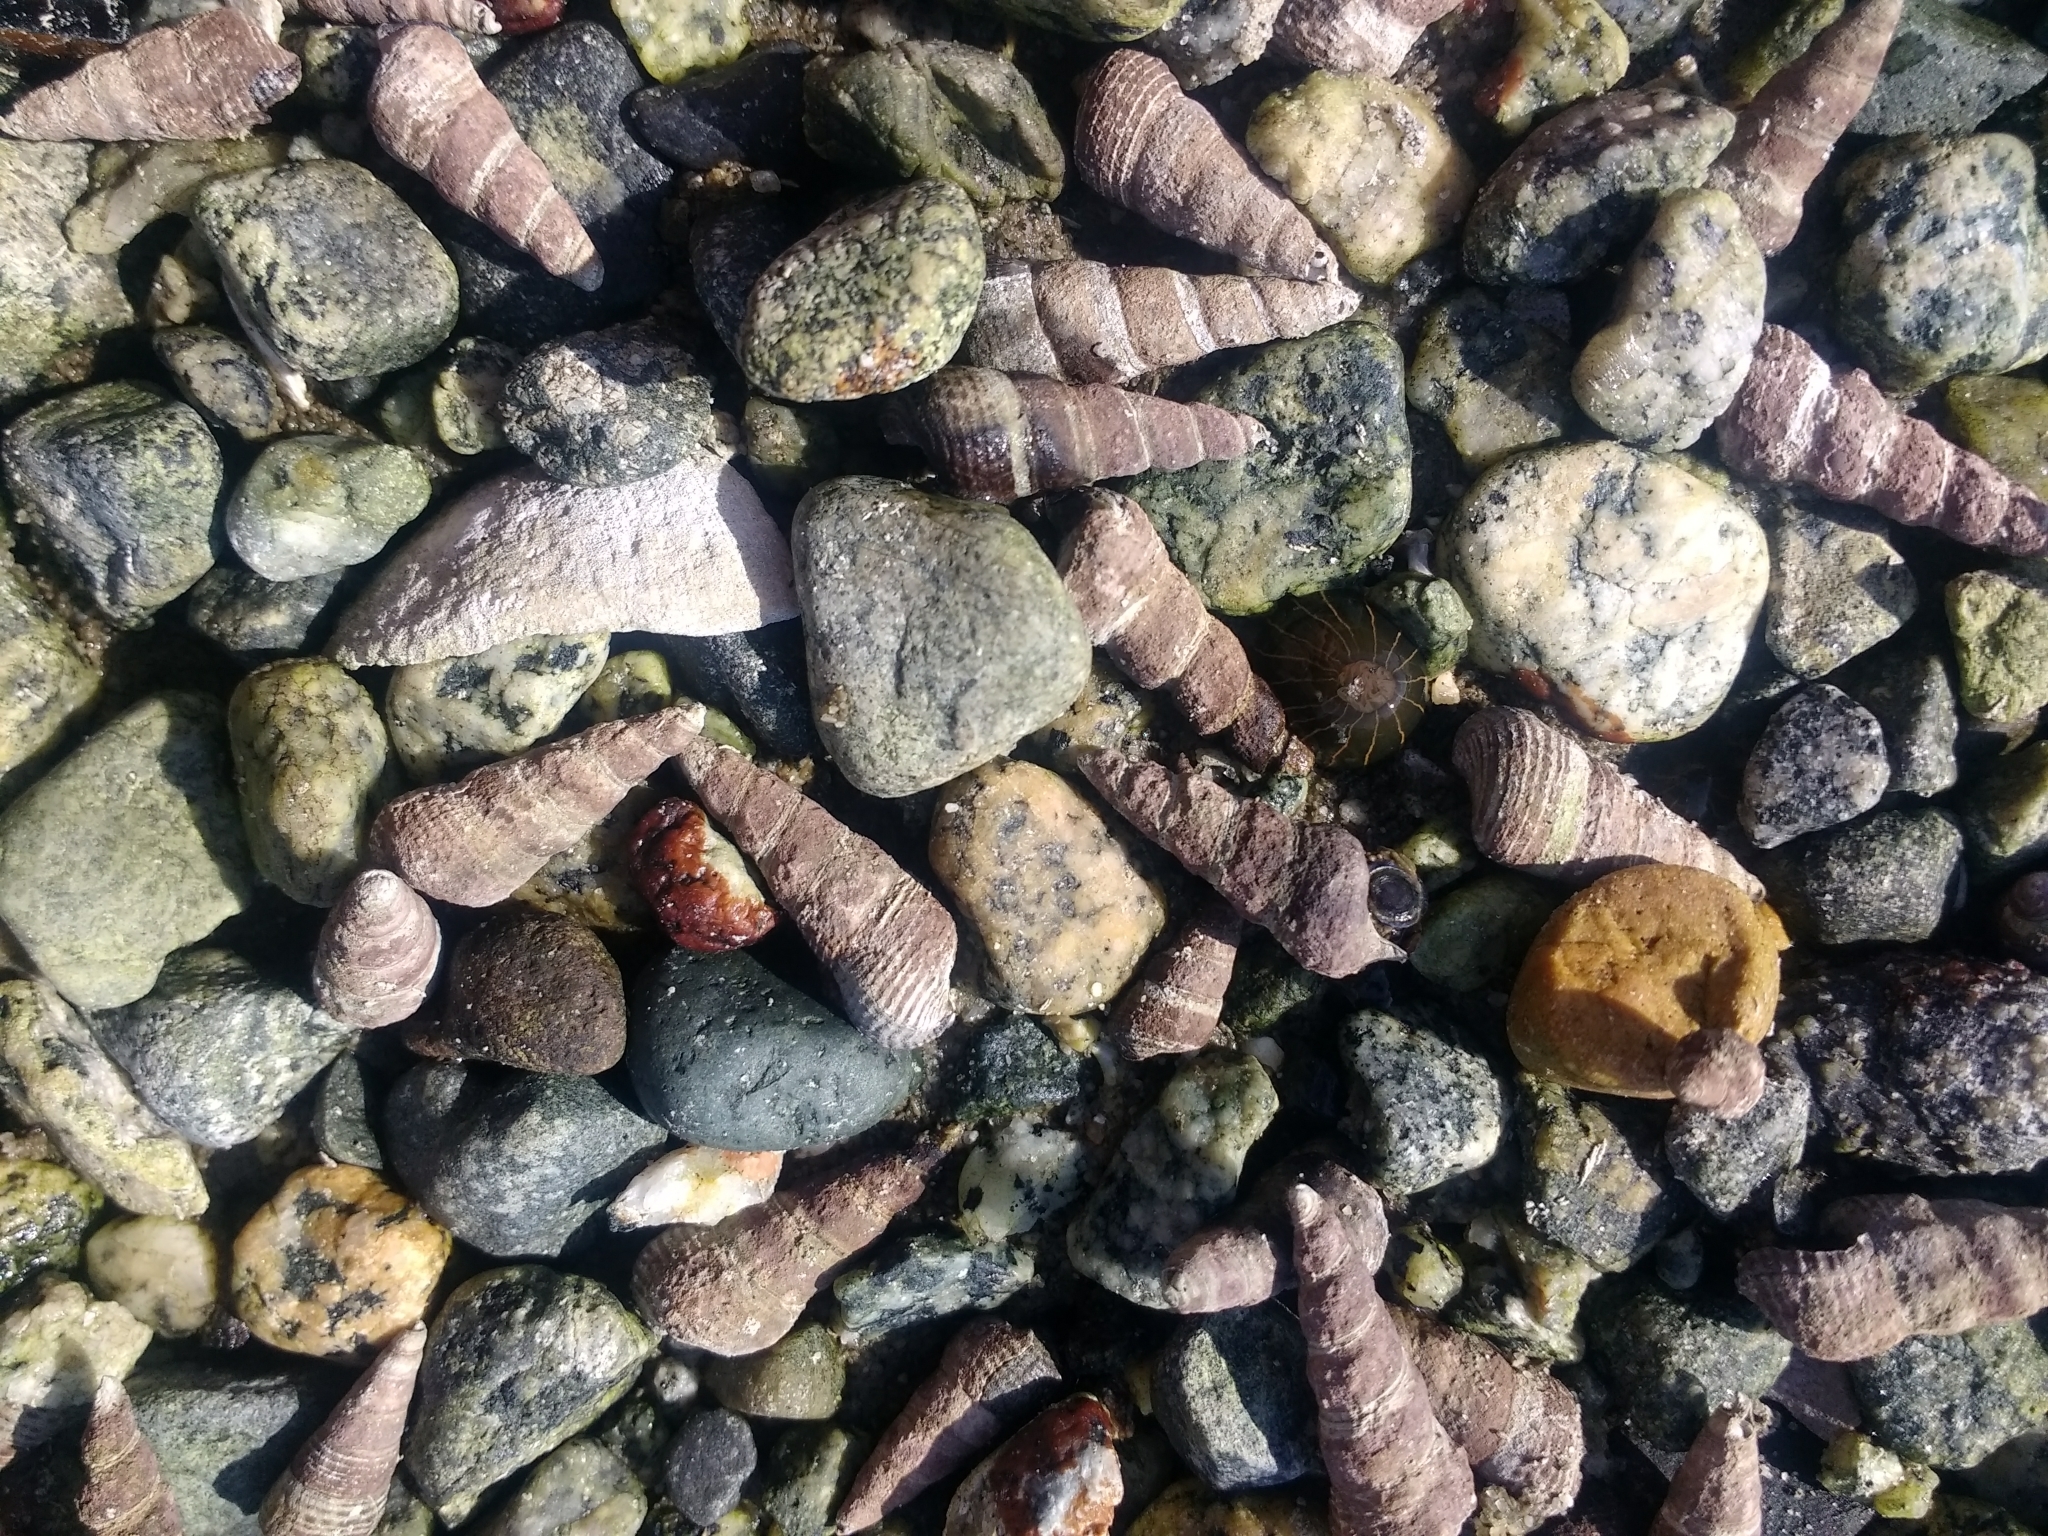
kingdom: Animalia
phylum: Mollusca
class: Gastropoda
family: Batillariidae
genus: Batillaria
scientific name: Batillaria attramentaria
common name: Japanese false cerith
